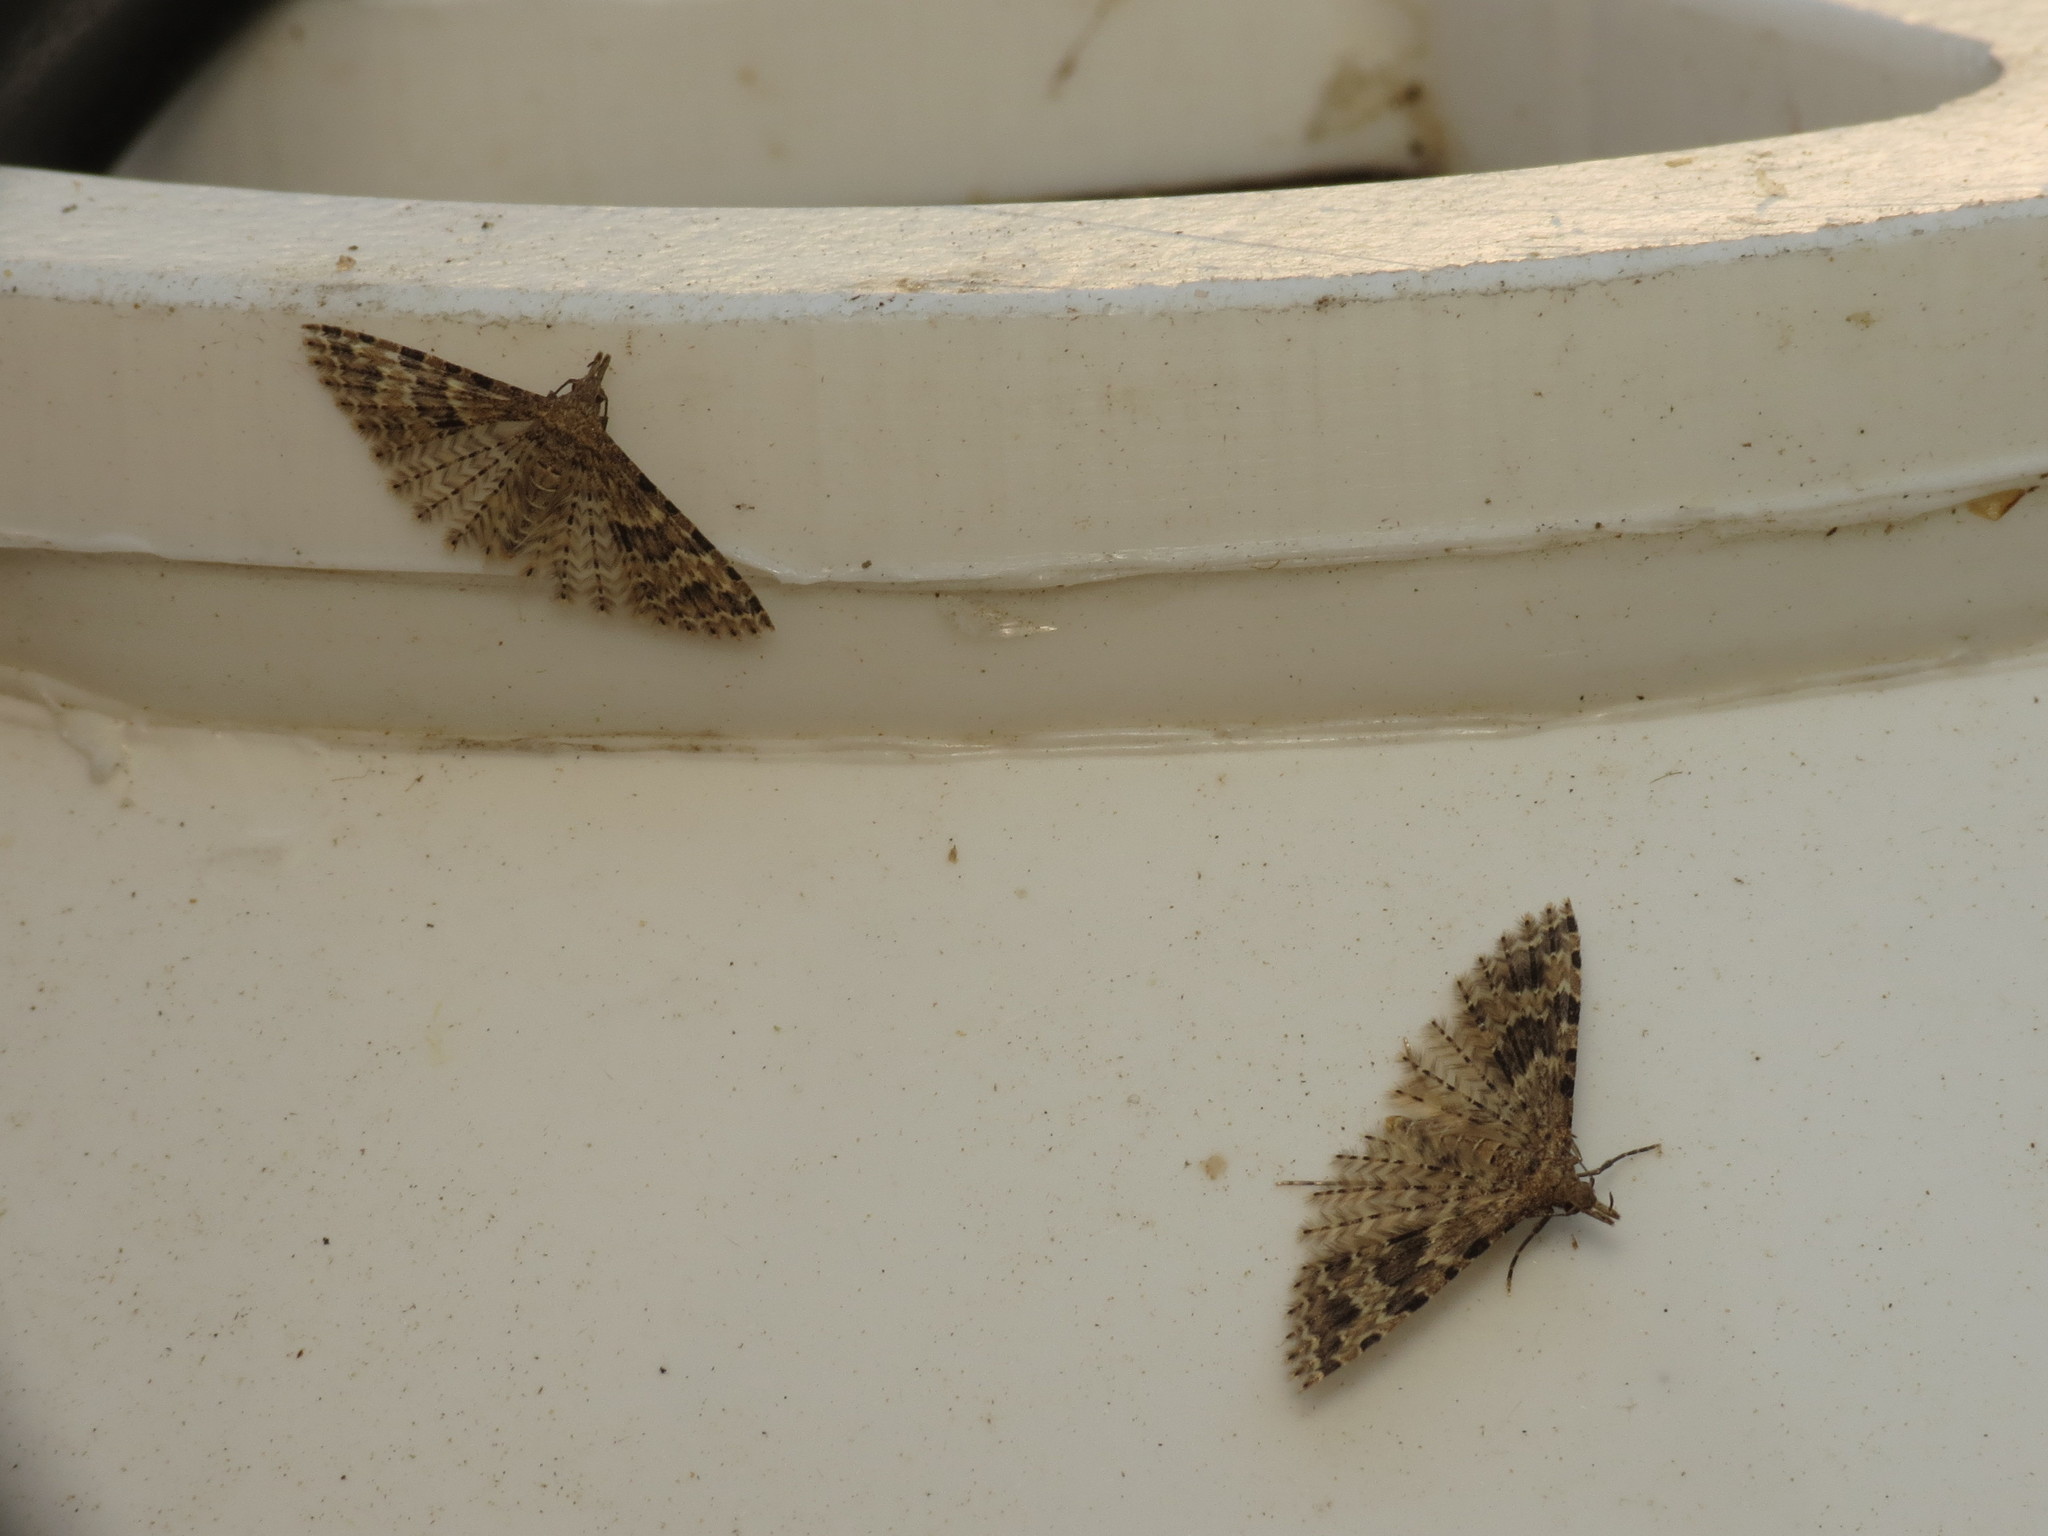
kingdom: Animalia
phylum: Arthropoda
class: Insecta
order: Lepidoptera
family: Alucitidae
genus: Alucita
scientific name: Alucita hexadactyla
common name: Twenty-plume moth
